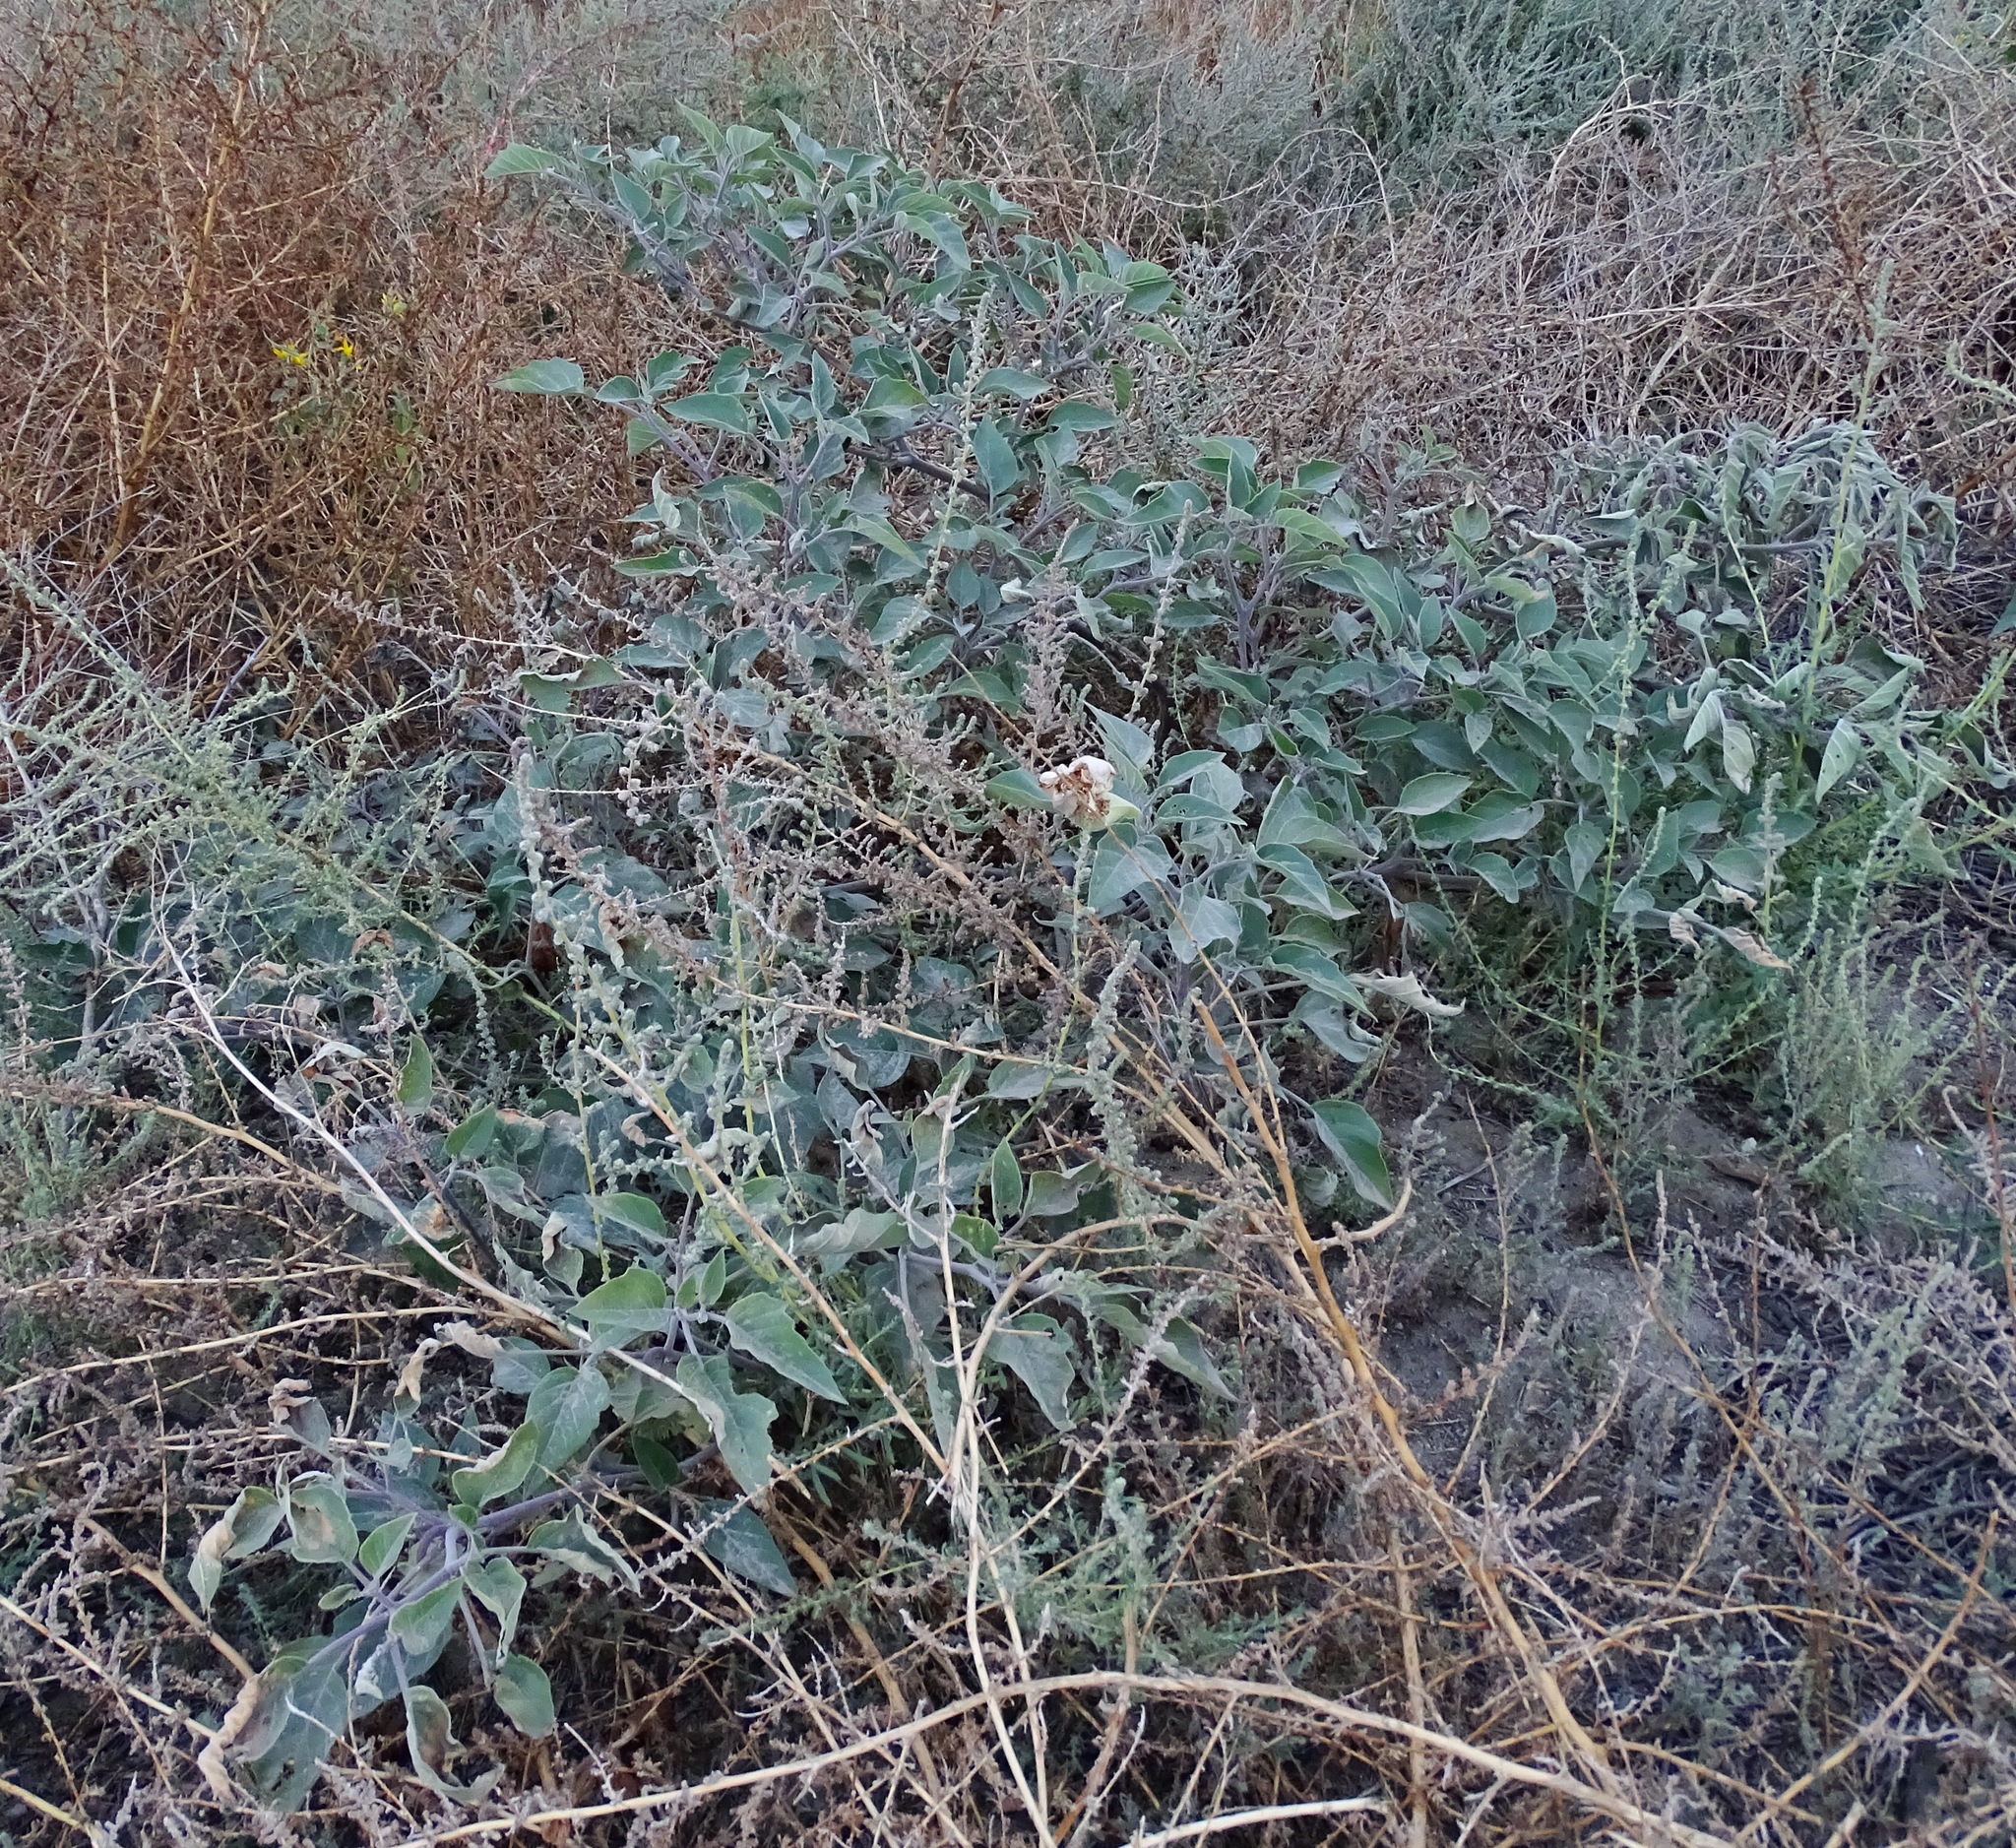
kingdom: Plantae
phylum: Tracheophyta
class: Magnoliopsida
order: Solanales
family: Solanaceae
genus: Datura
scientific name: Datura wrightii
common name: Sacred thorn-apple
